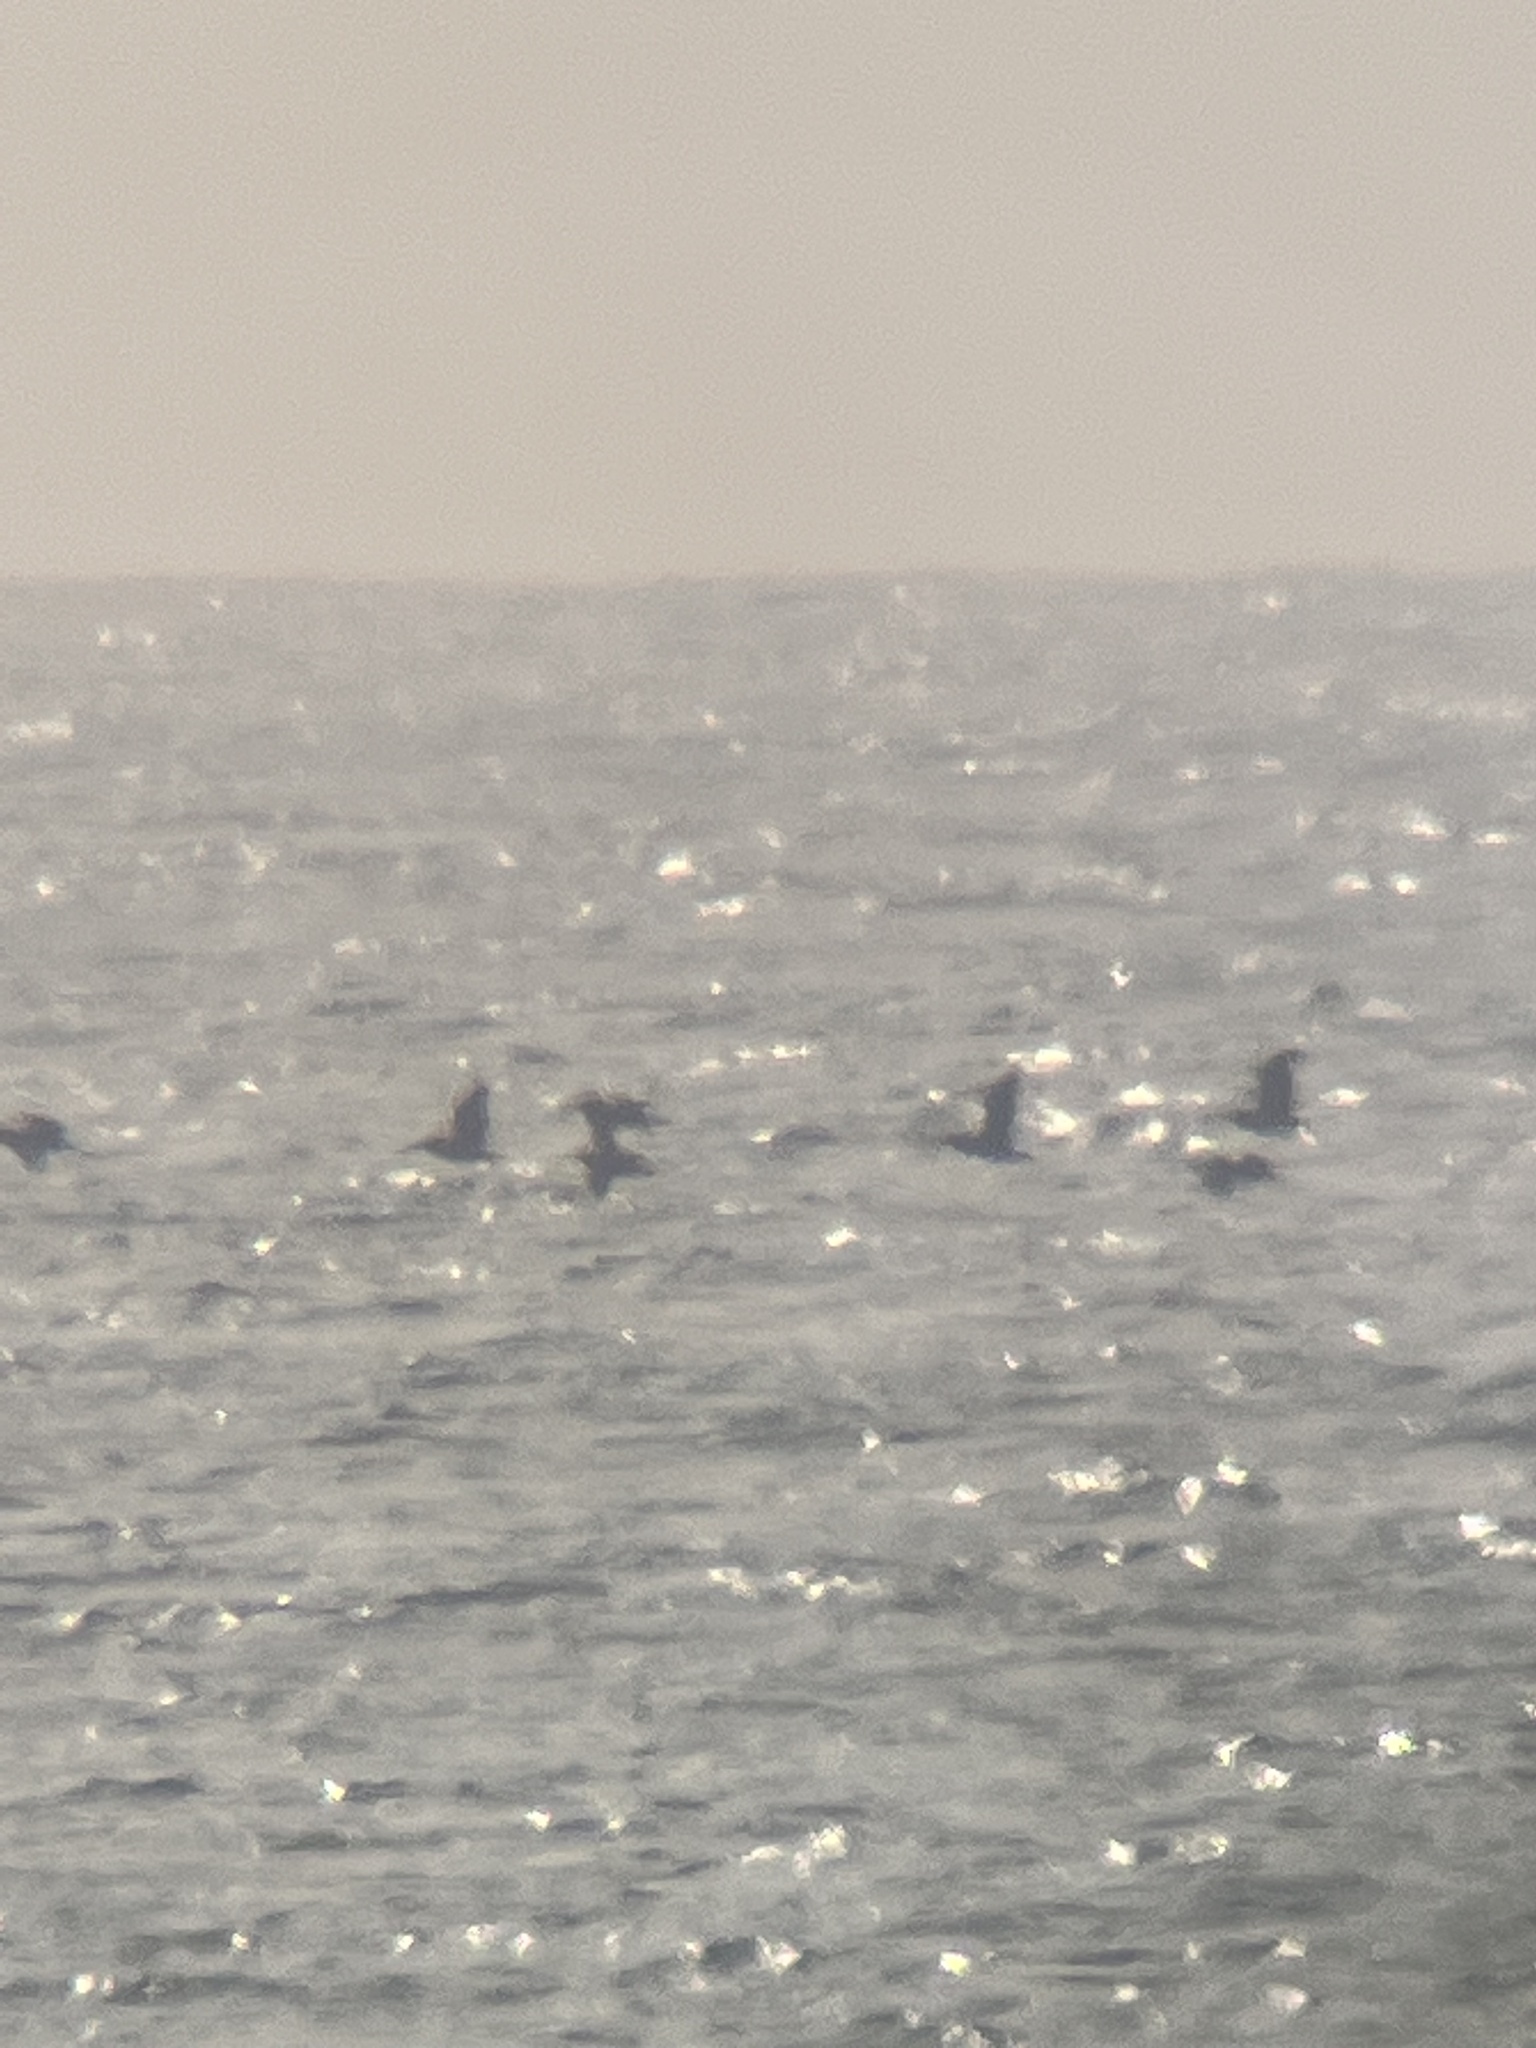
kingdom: Animalia
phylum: Chordata
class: Aves
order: Pelecaniformes
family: Pelecanidae
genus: Pelecanus
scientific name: Pelecanus occidentalis
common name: Brown pelican
